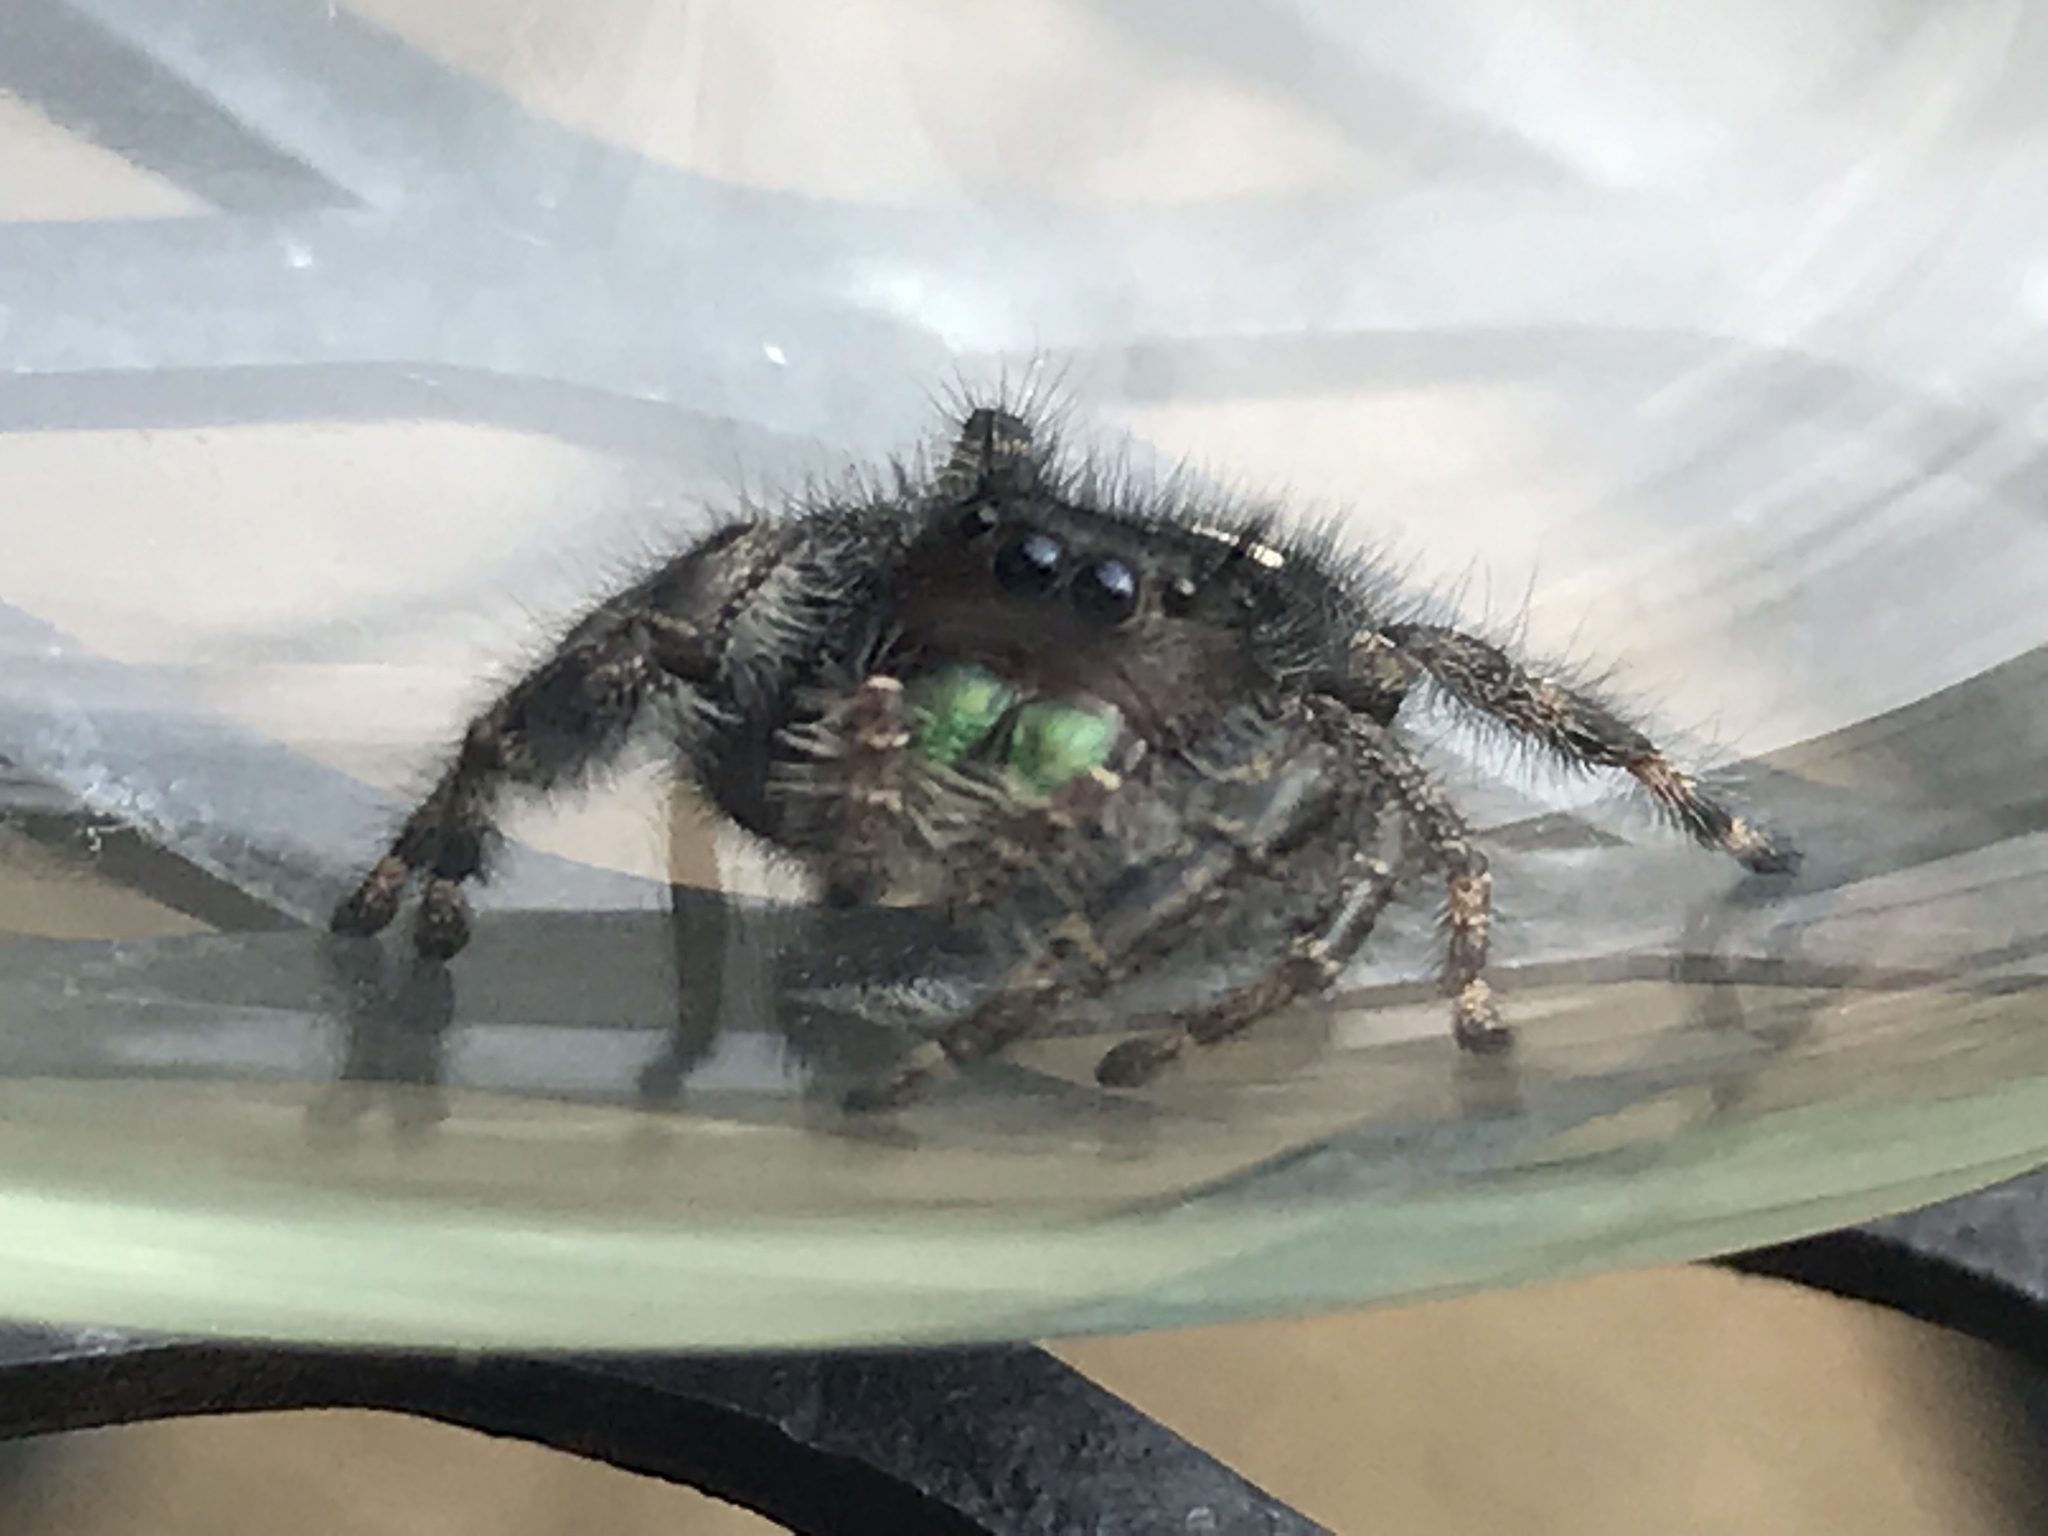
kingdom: Animalia
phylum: Arthropoda
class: Arachnida
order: Araneae
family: Salticidae
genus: Phidippus
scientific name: Phidippus audax
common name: Bold jumper
